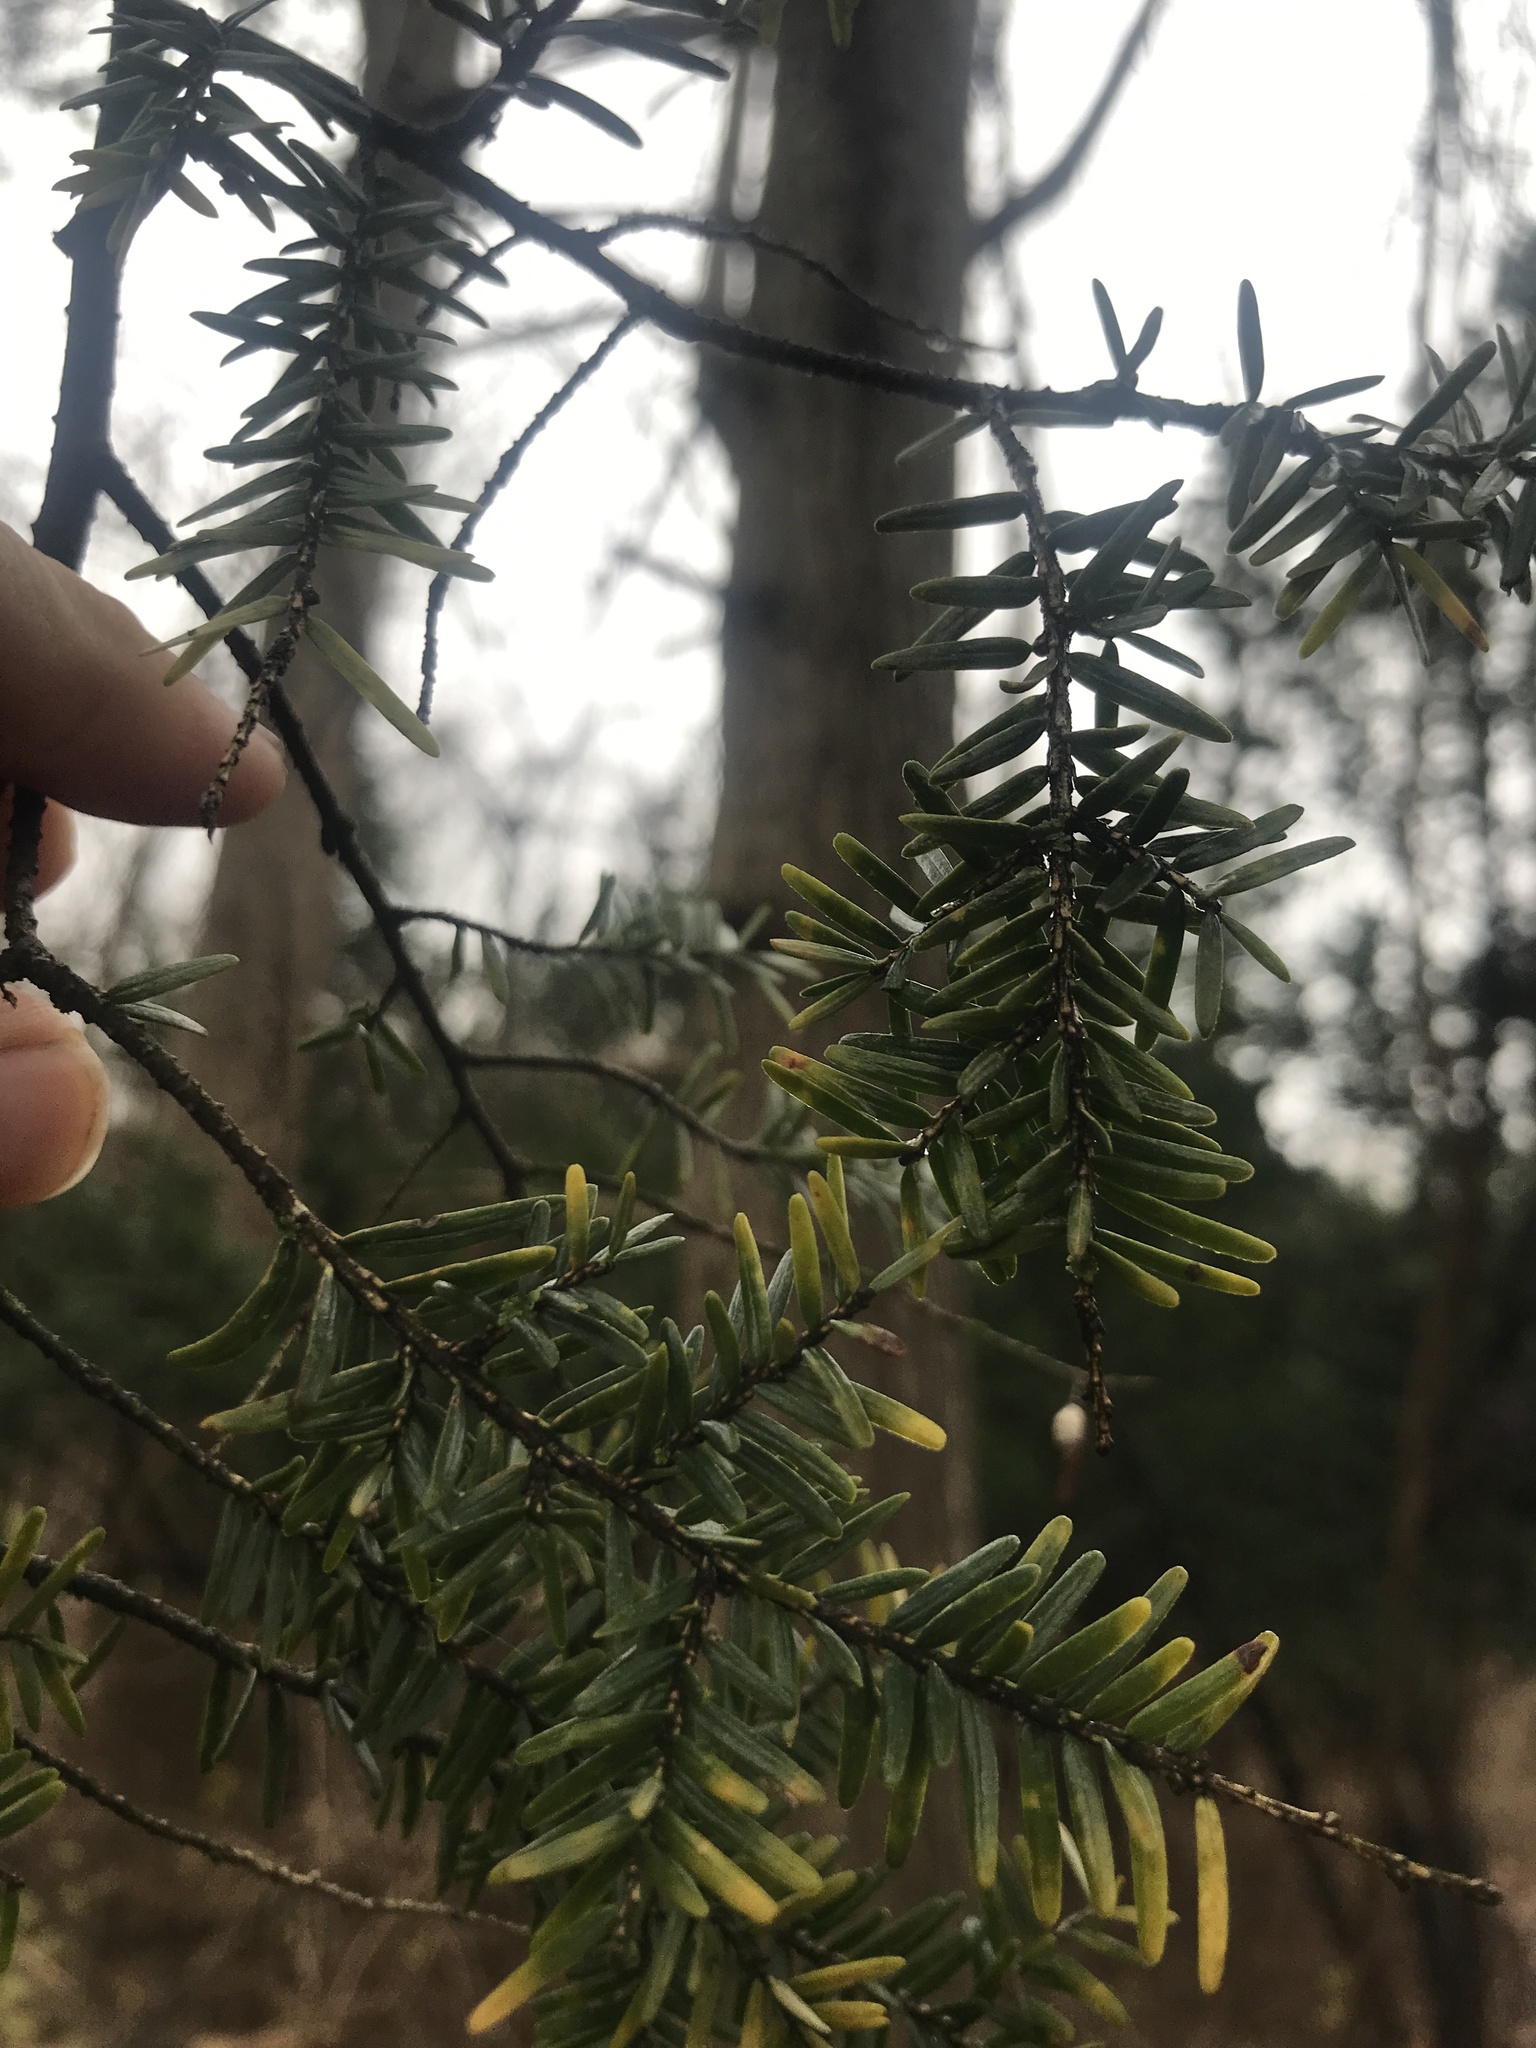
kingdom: Plantae
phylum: Tracheophyta
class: Pinopsida
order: Pinales
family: Pinaceae
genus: Tsuga
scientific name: Tsuga canadensis
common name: Eastern hemlock
